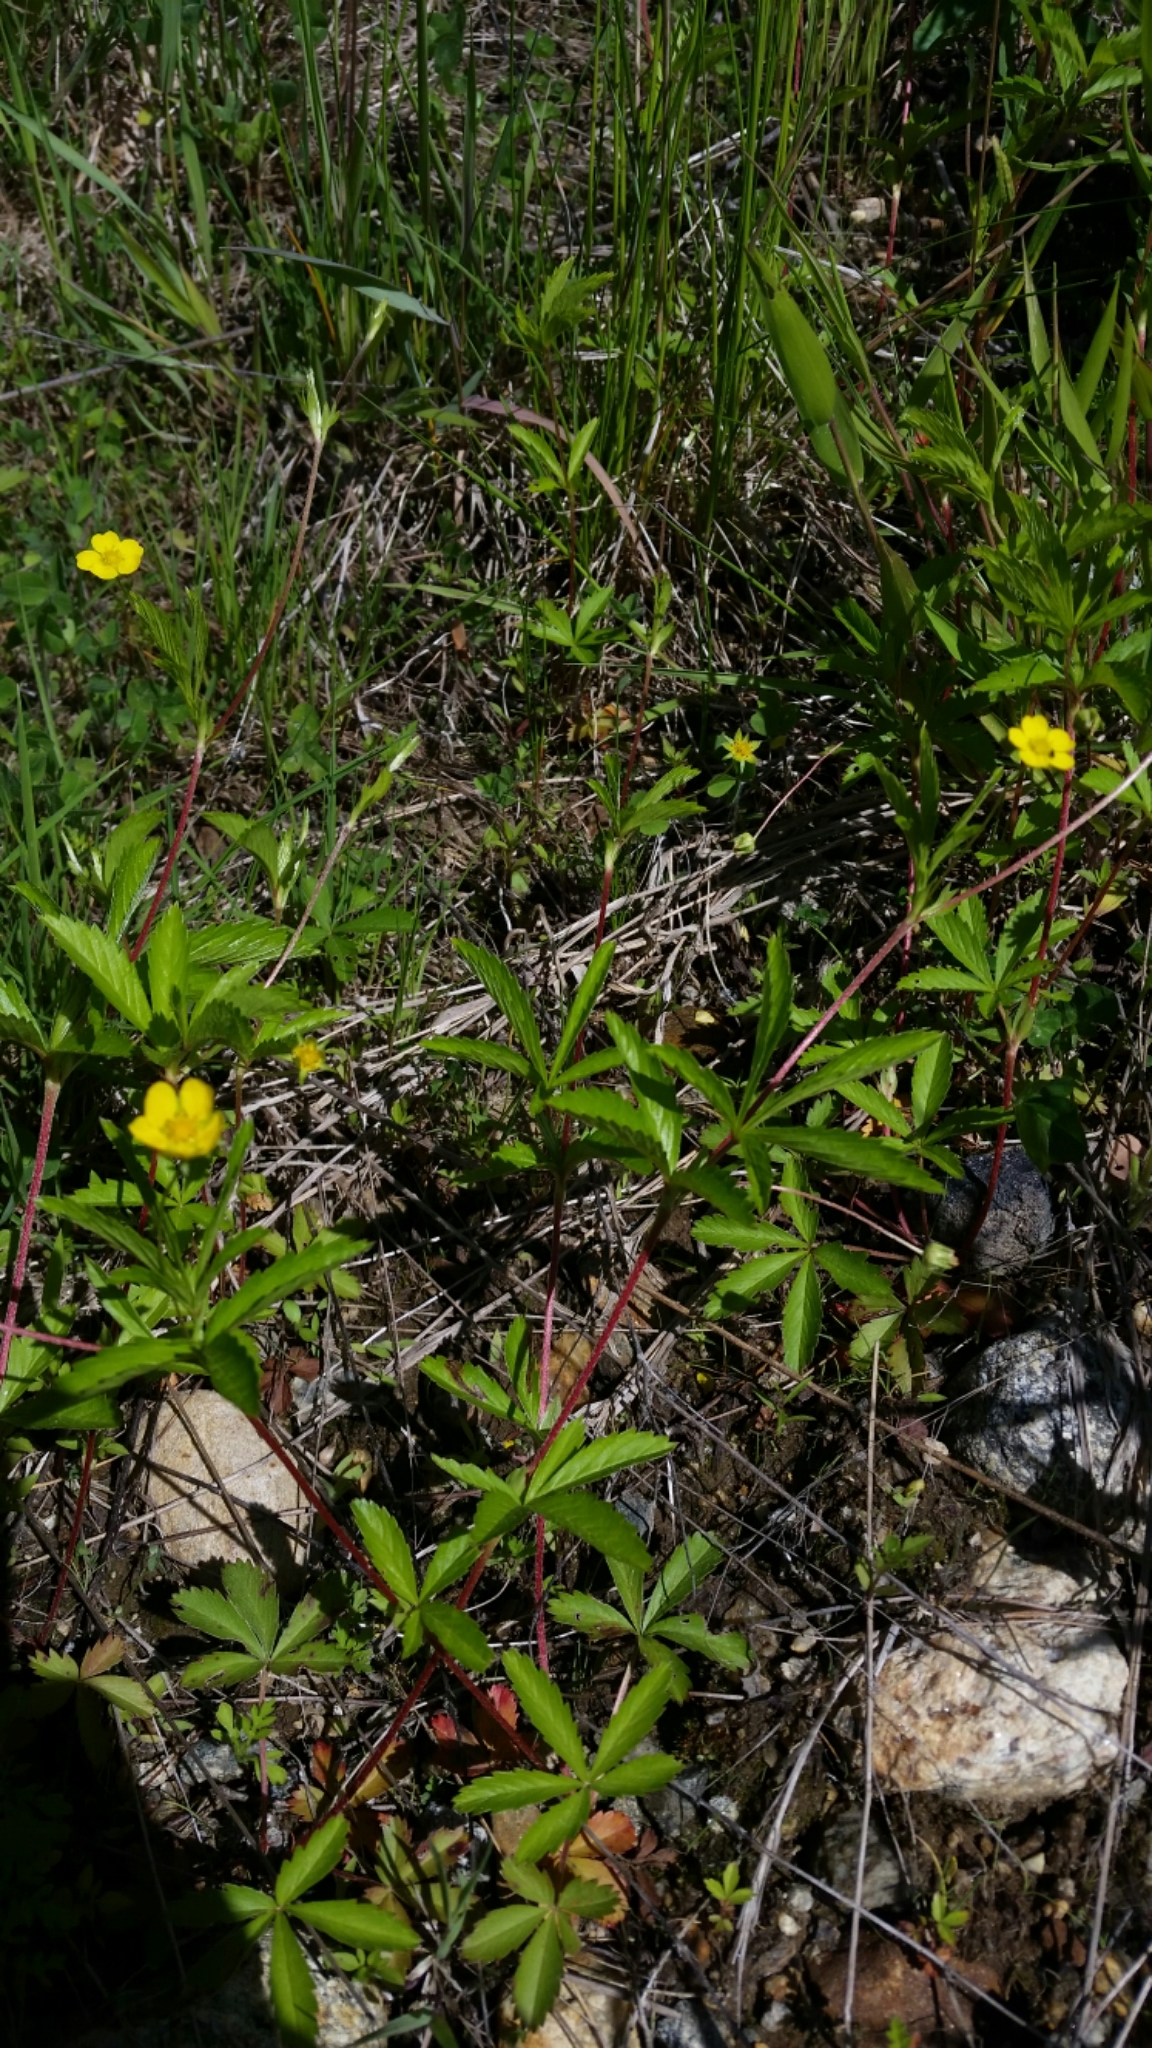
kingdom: Plantae
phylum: Tracheophyta
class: Magnoliopsida
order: Rosales
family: Rosaceae
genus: Potentilla
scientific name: Potentilla simplex
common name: Old field cinquefoil
